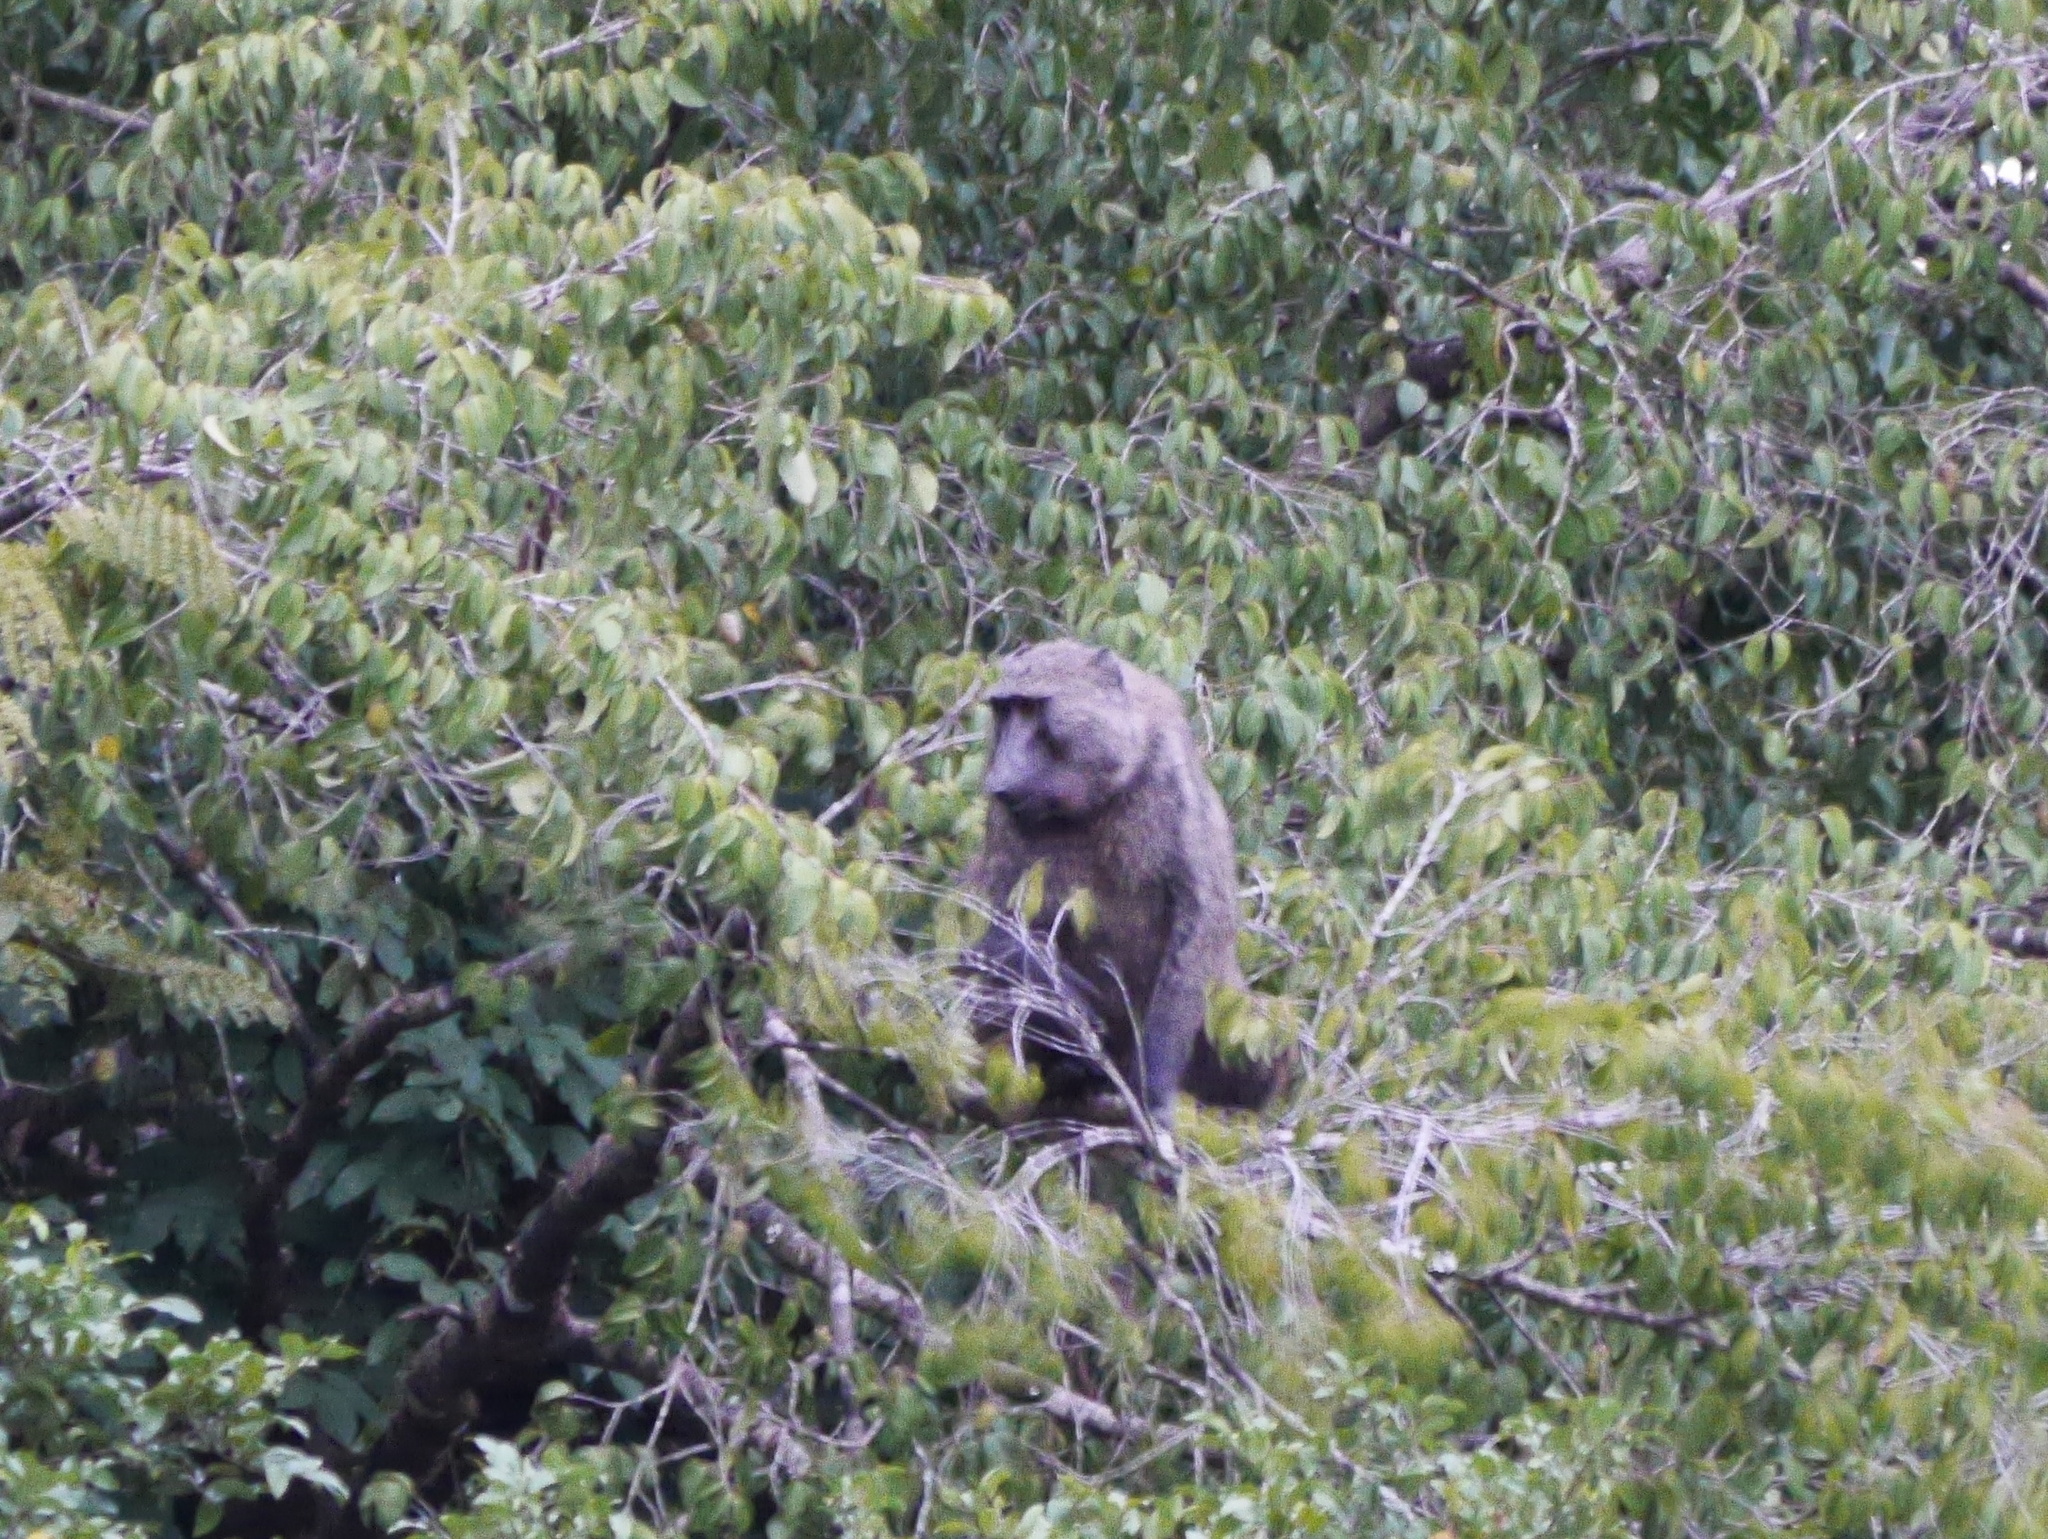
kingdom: Animalia
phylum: Chordata
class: Mammalia
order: Primates
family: Cercopithecidae
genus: Papio
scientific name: Papio anubis
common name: Olive baboon
